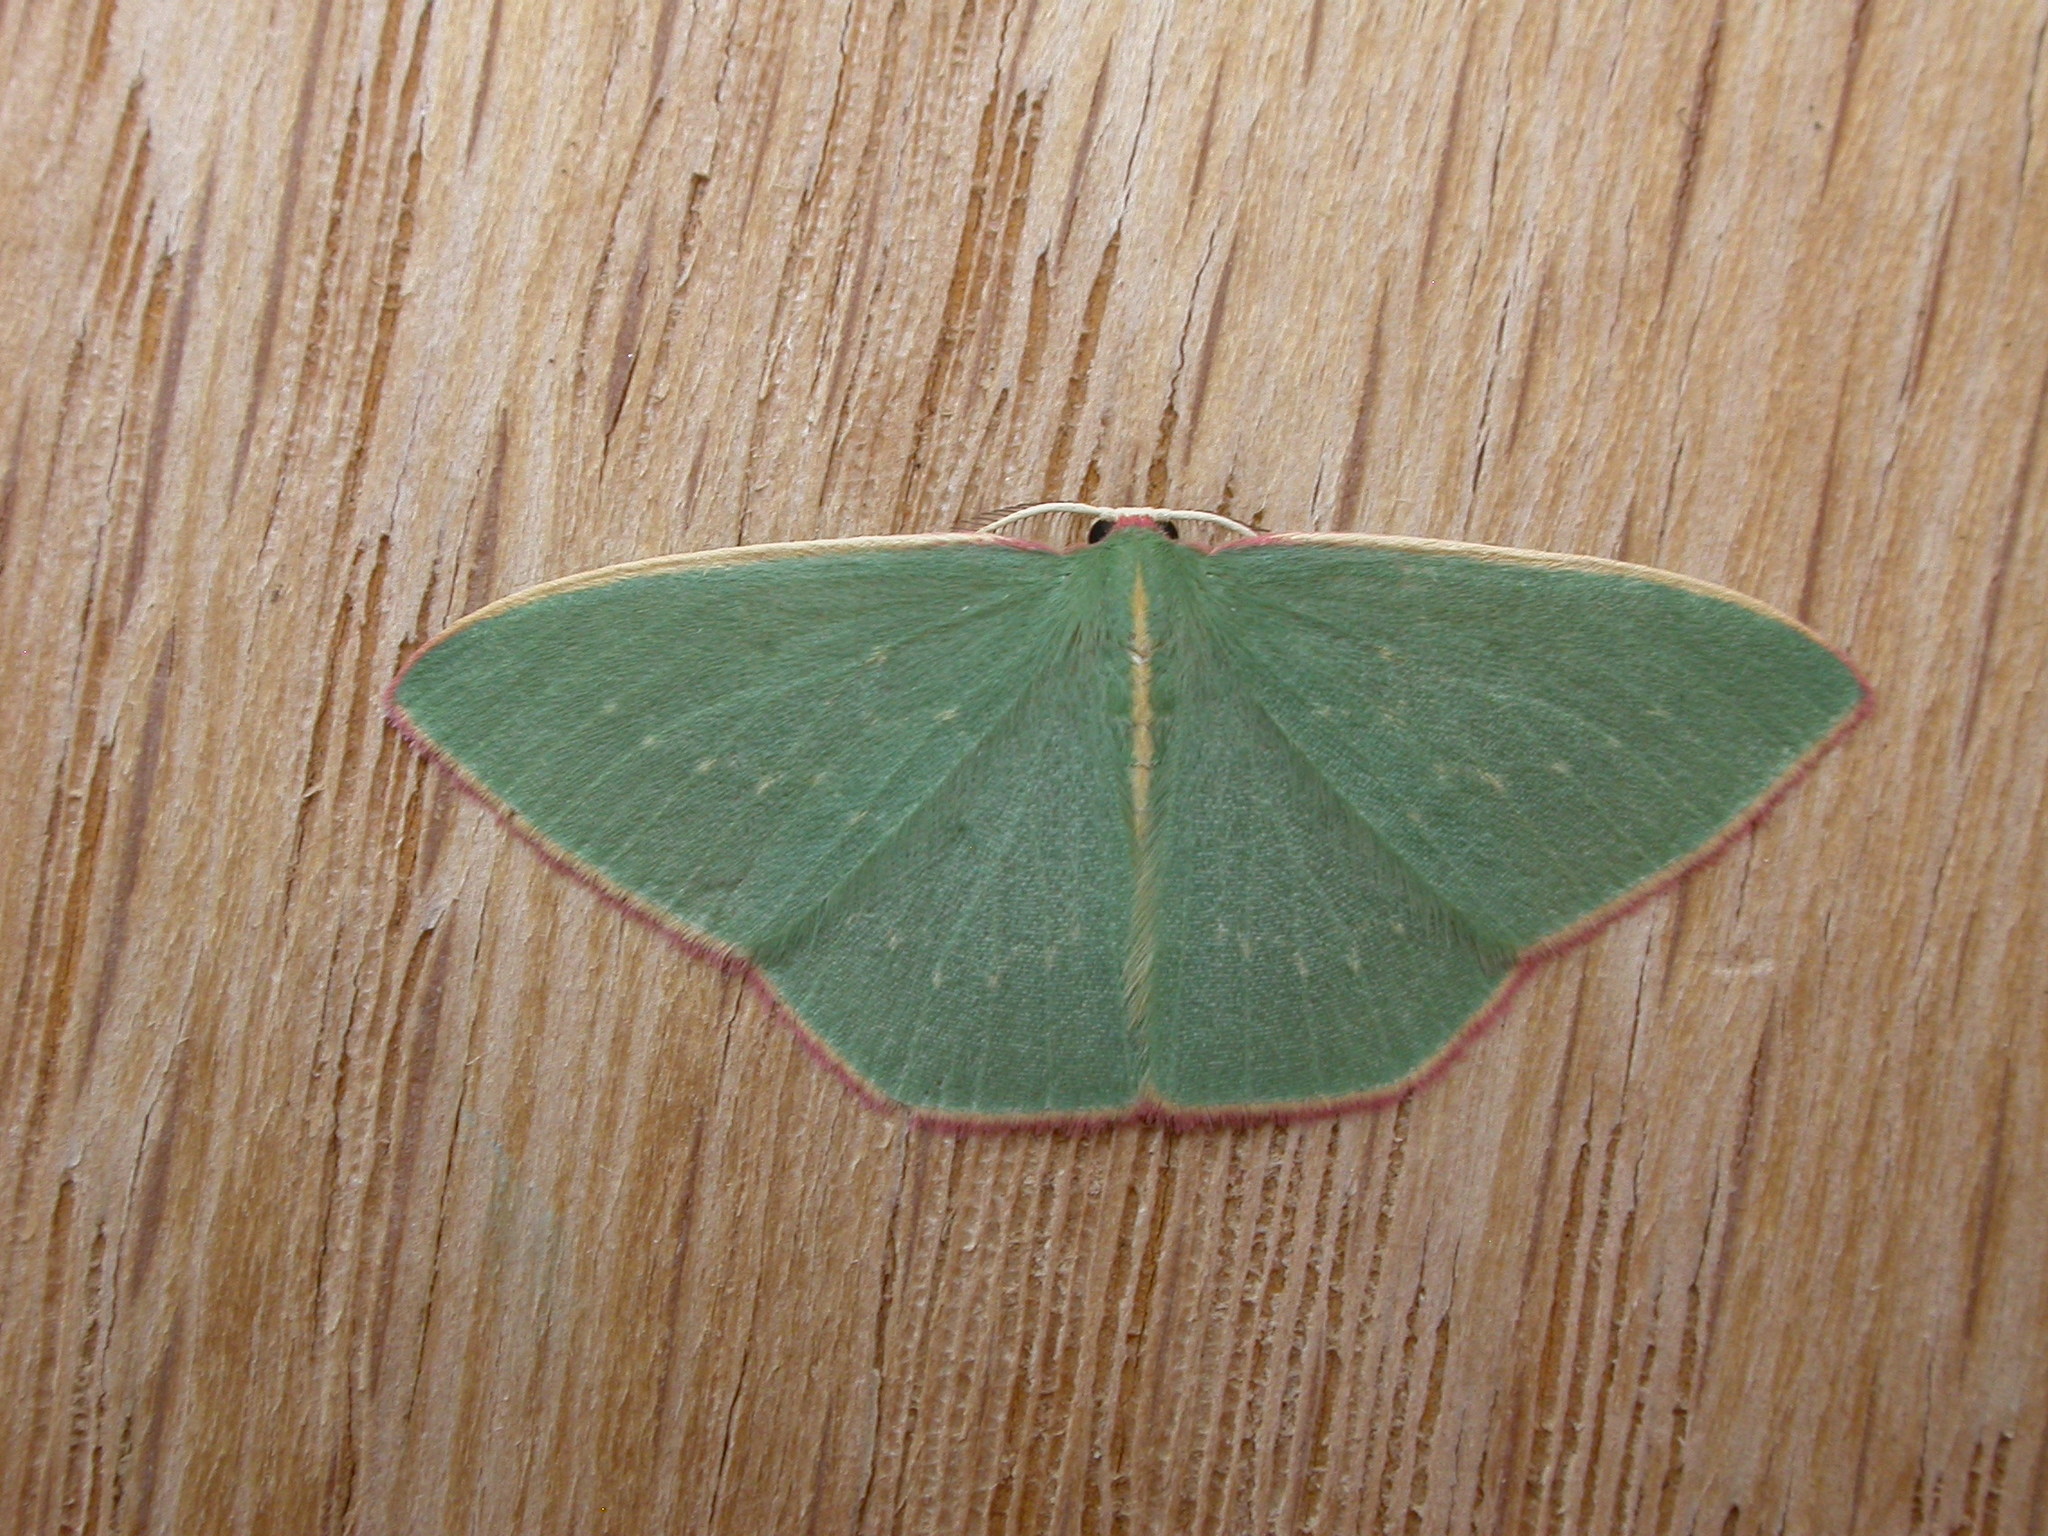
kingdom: Animalia
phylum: Arthropoda
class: Insecta
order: Lepidoptera
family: Geometridae
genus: Chlorocoma
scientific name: Chlorocoma vertumnaria
